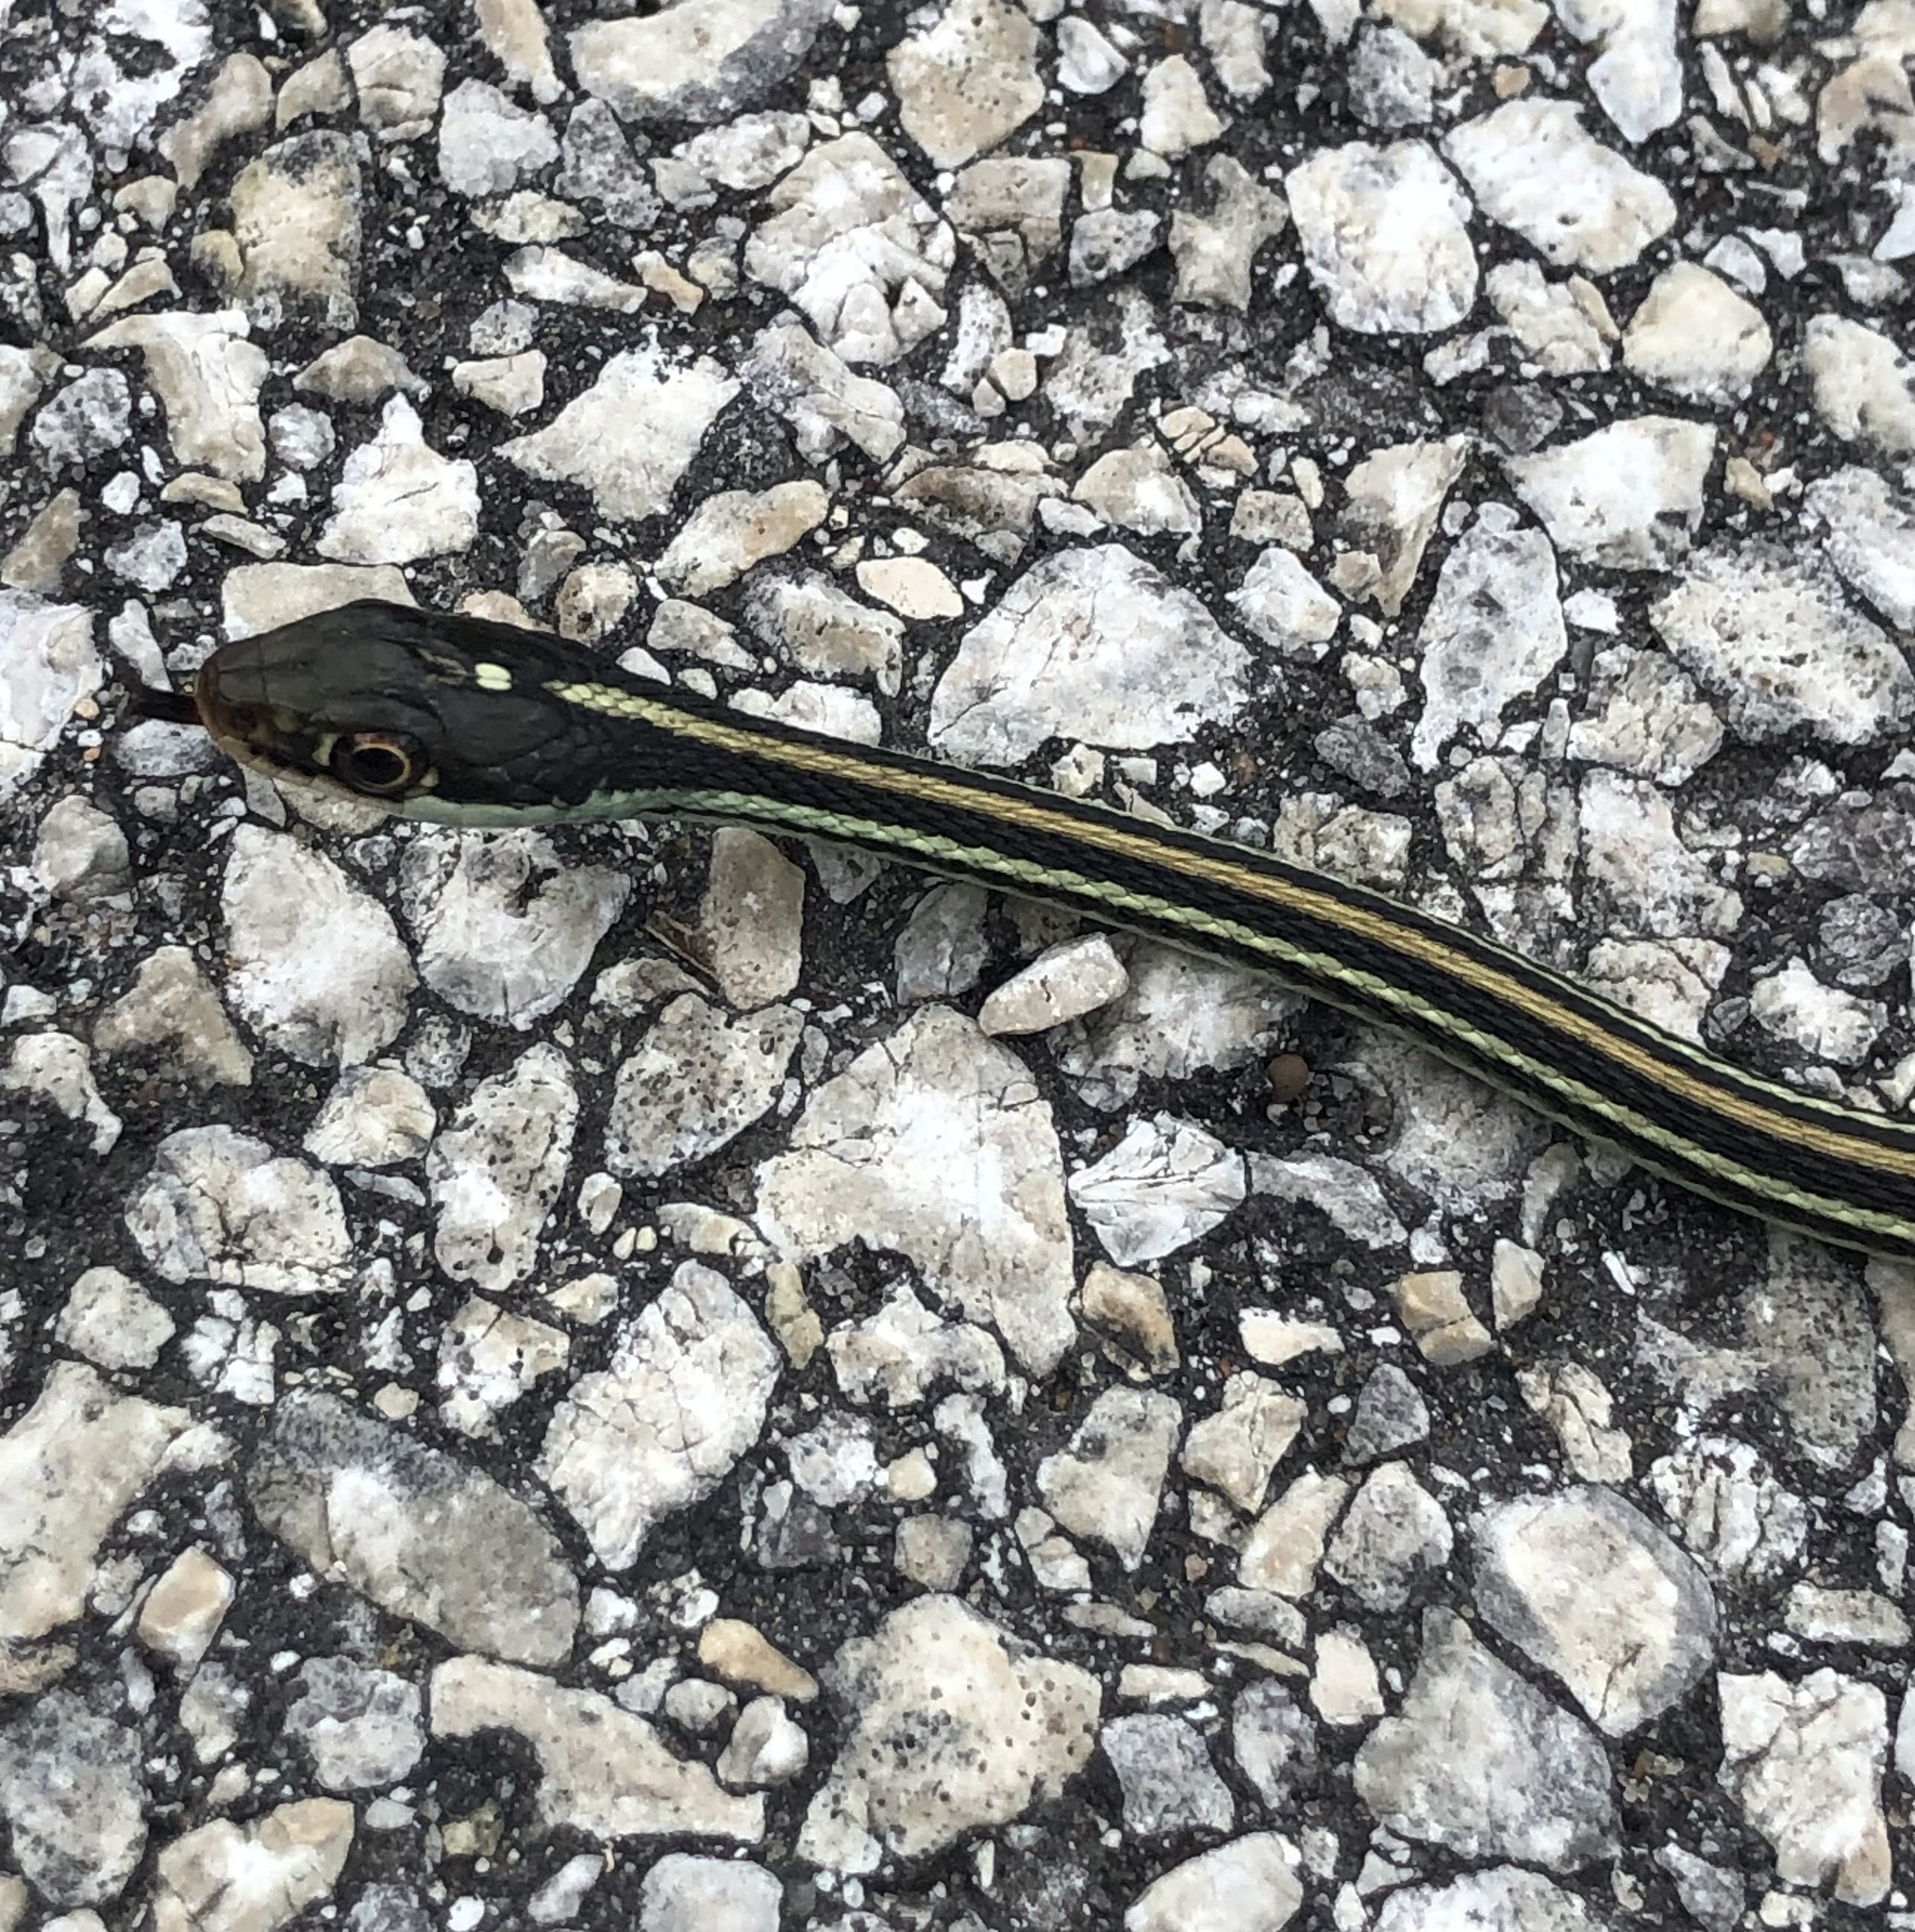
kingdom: Animalia
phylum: Chordata
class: Squamata
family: Colubridae
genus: Thamnophis
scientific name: Thamnophis proximus
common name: Western ribbon snake
